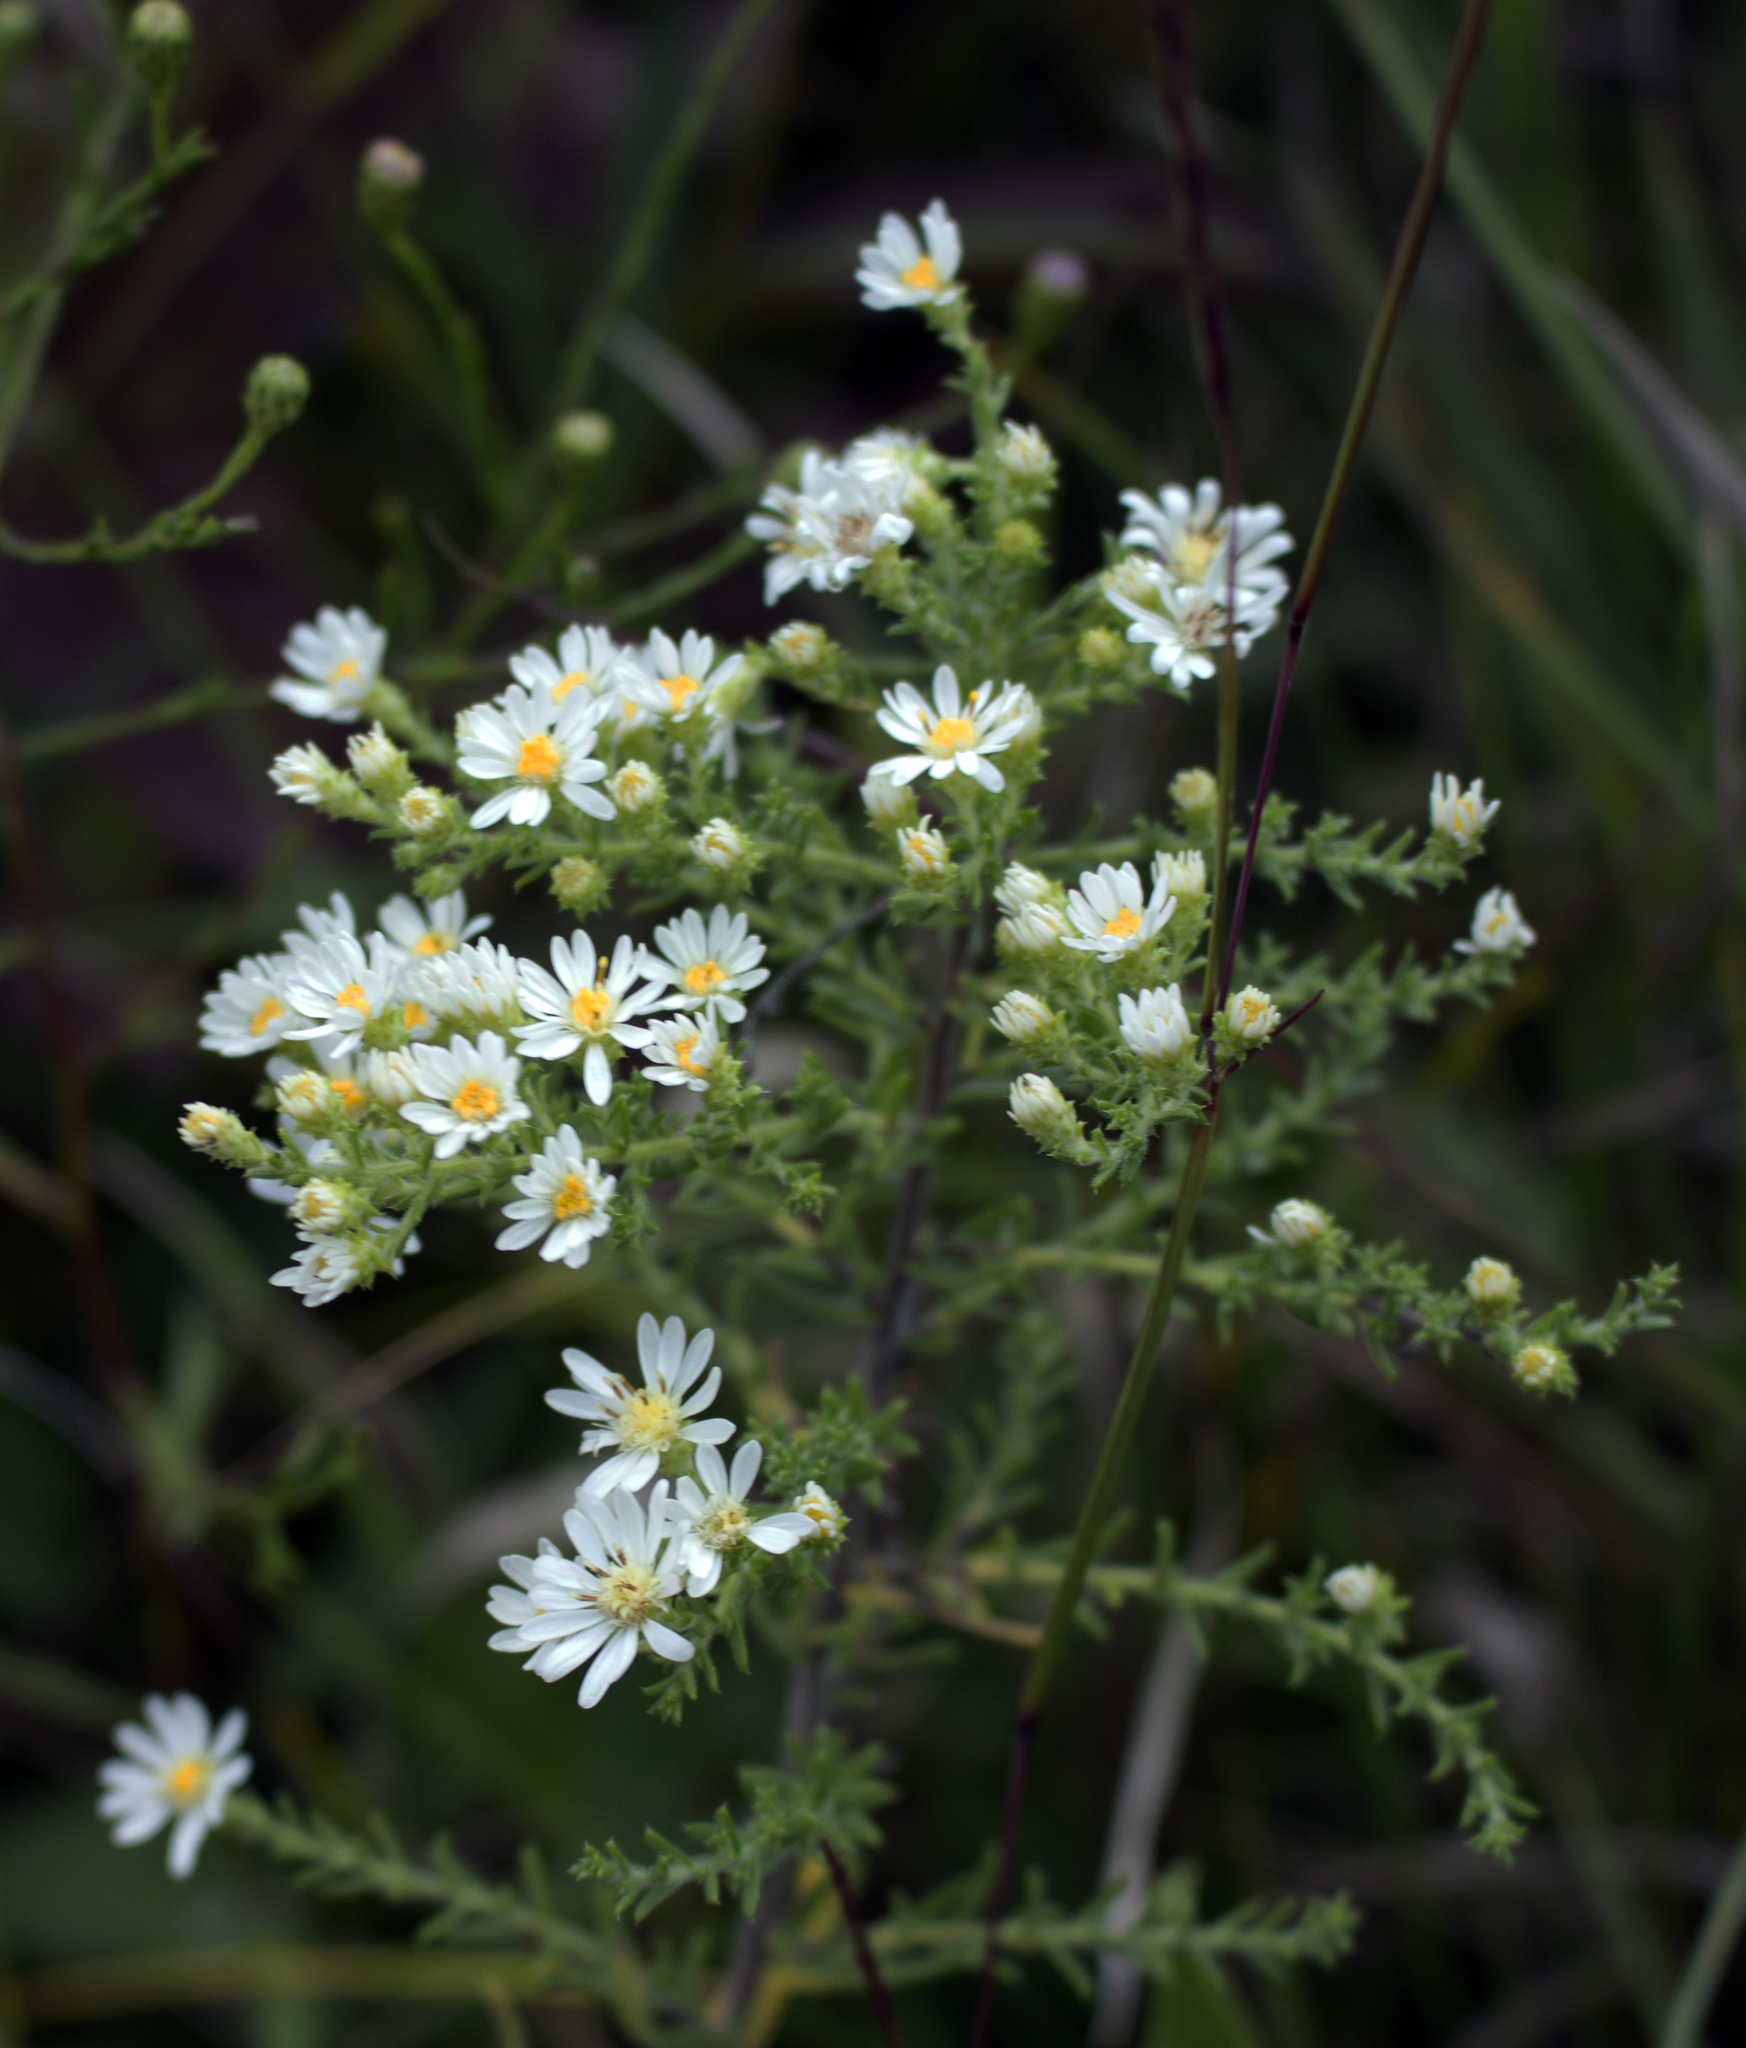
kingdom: Plantae
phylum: Tracheophyta
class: Magnoliopsida
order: Asterales
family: Asteraceae
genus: Symphyotrichum
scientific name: Symphyotrichum ericoides
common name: Heath aster
